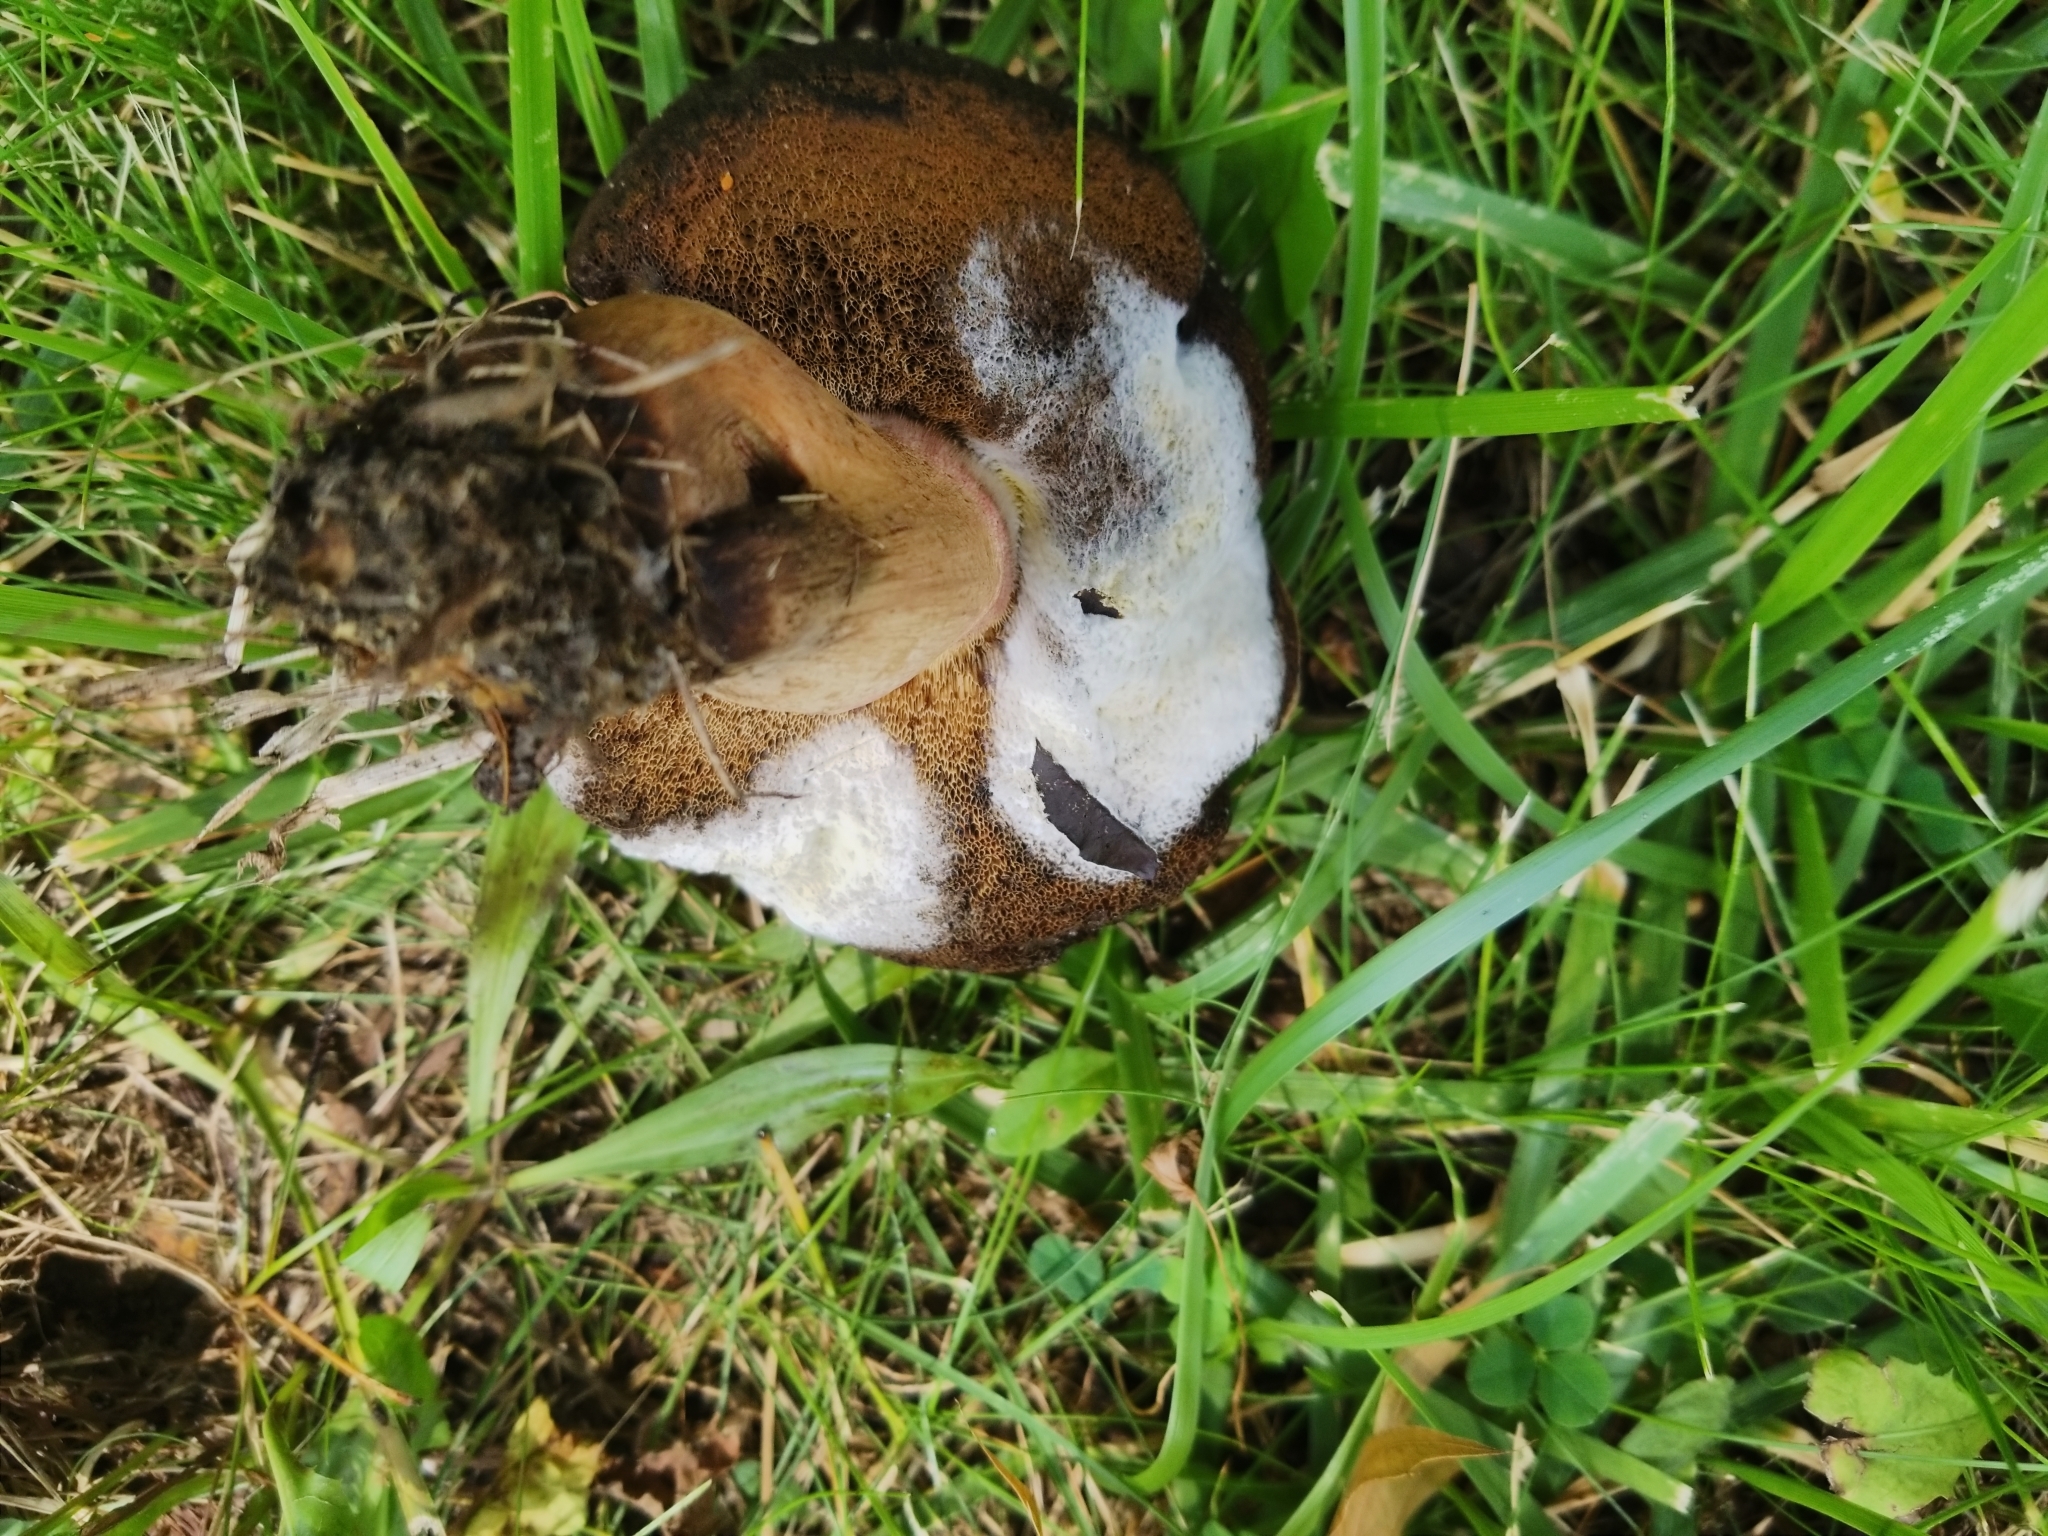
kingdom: Fungi
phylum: Ascomycota
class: Sordariomycetes
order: Hypocreales
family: Hypocreaceae
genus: Hypomyces
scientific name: Hypomyces chrysospermus
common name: Bolete mould
